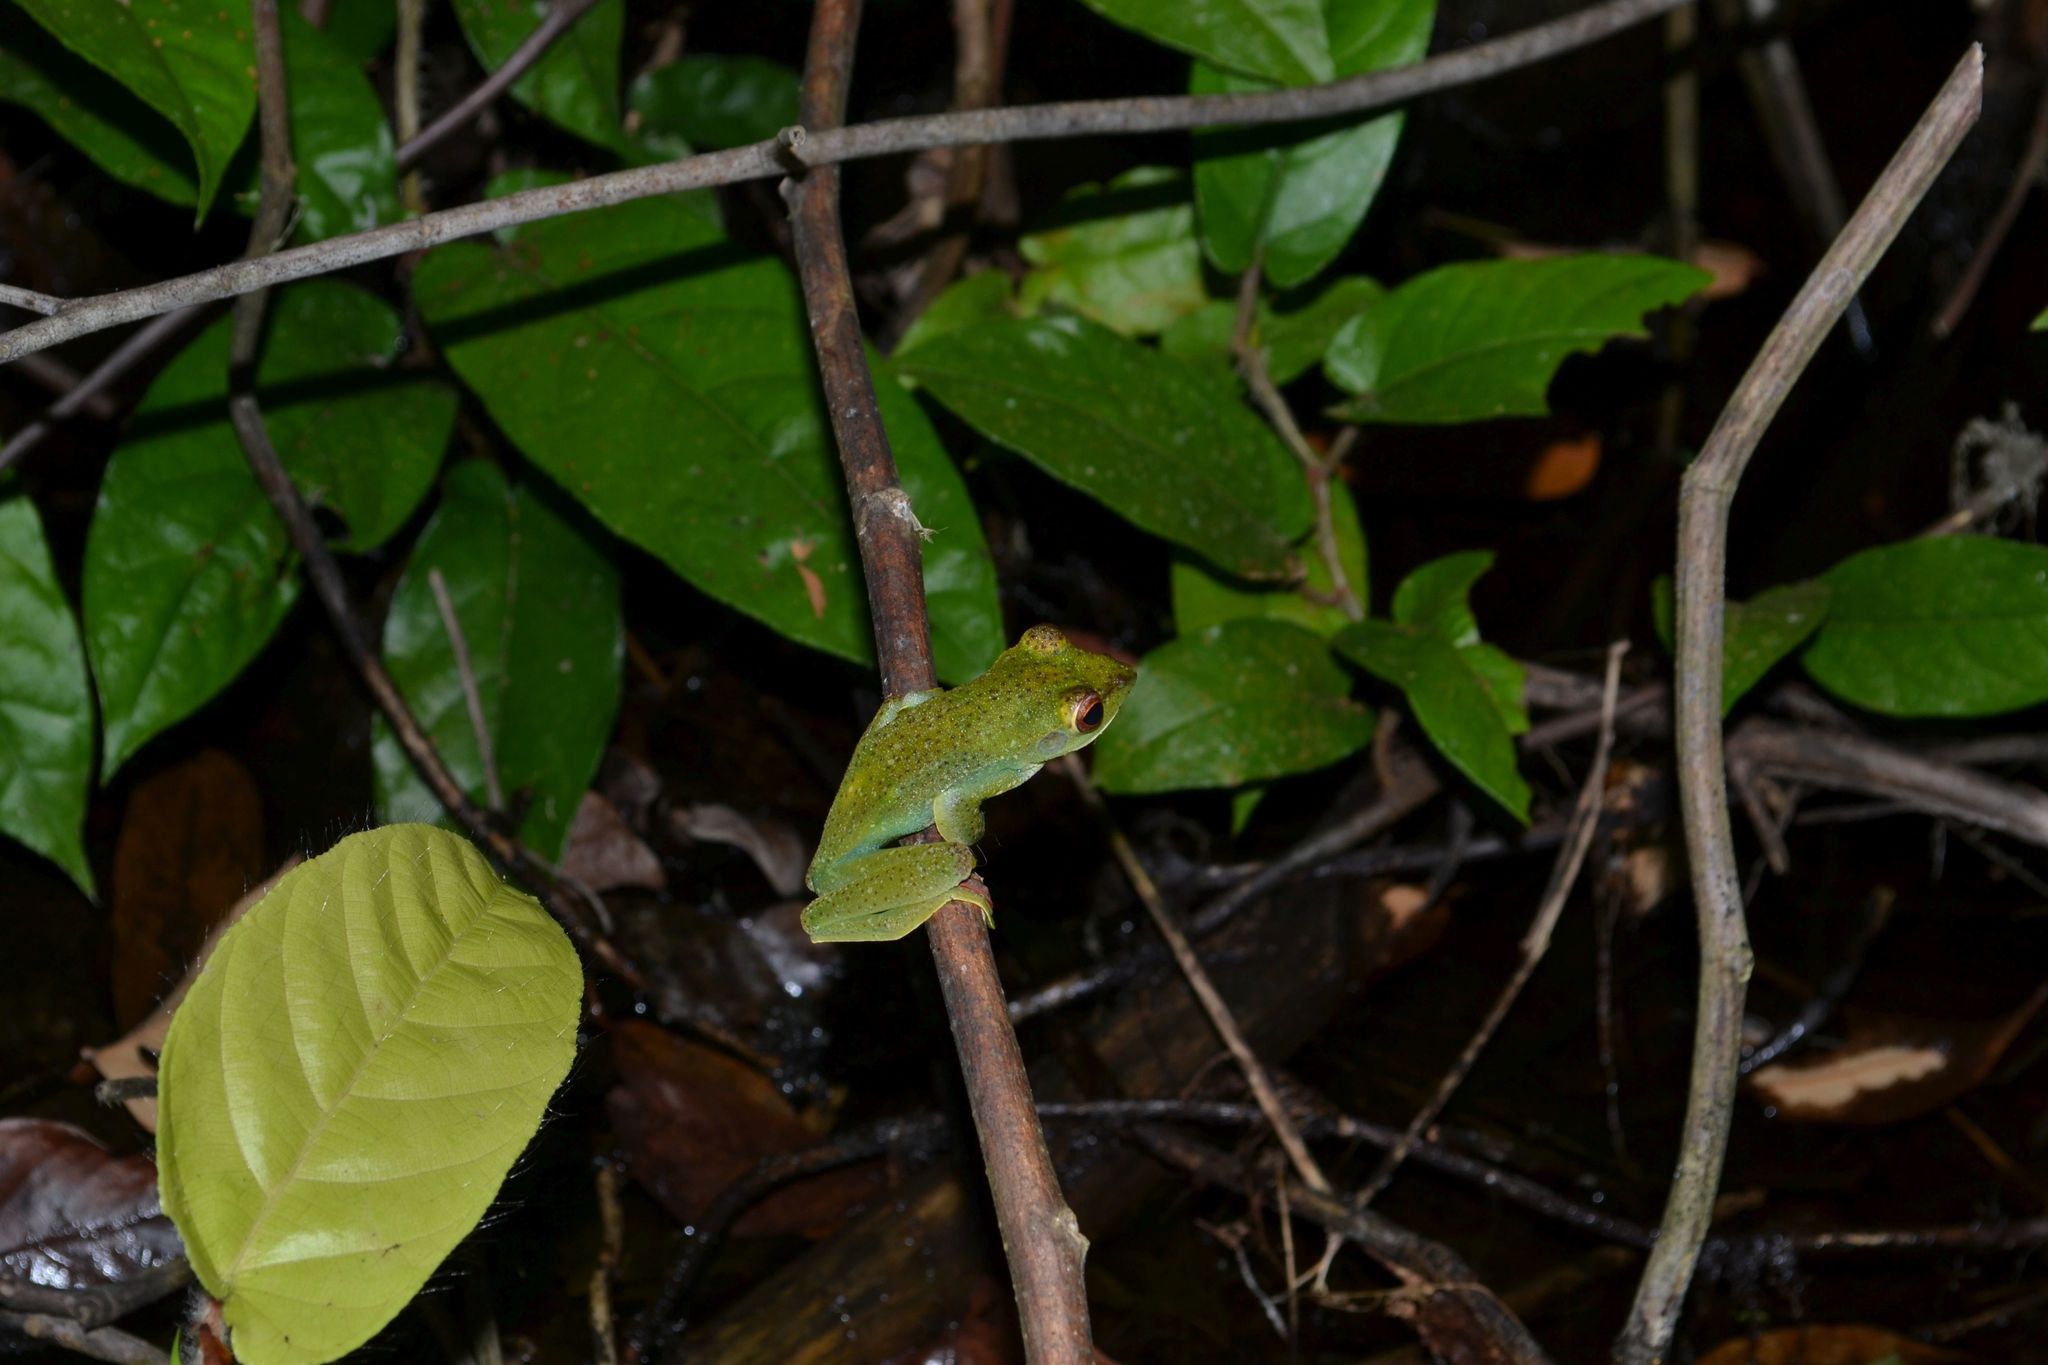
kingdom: Animalia
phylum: Chordata
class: Amphibia
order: Anura
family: Rhacophoridae
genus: Zhangixalus
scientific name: Zhangixalus prominanus
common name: Jor flying frog
